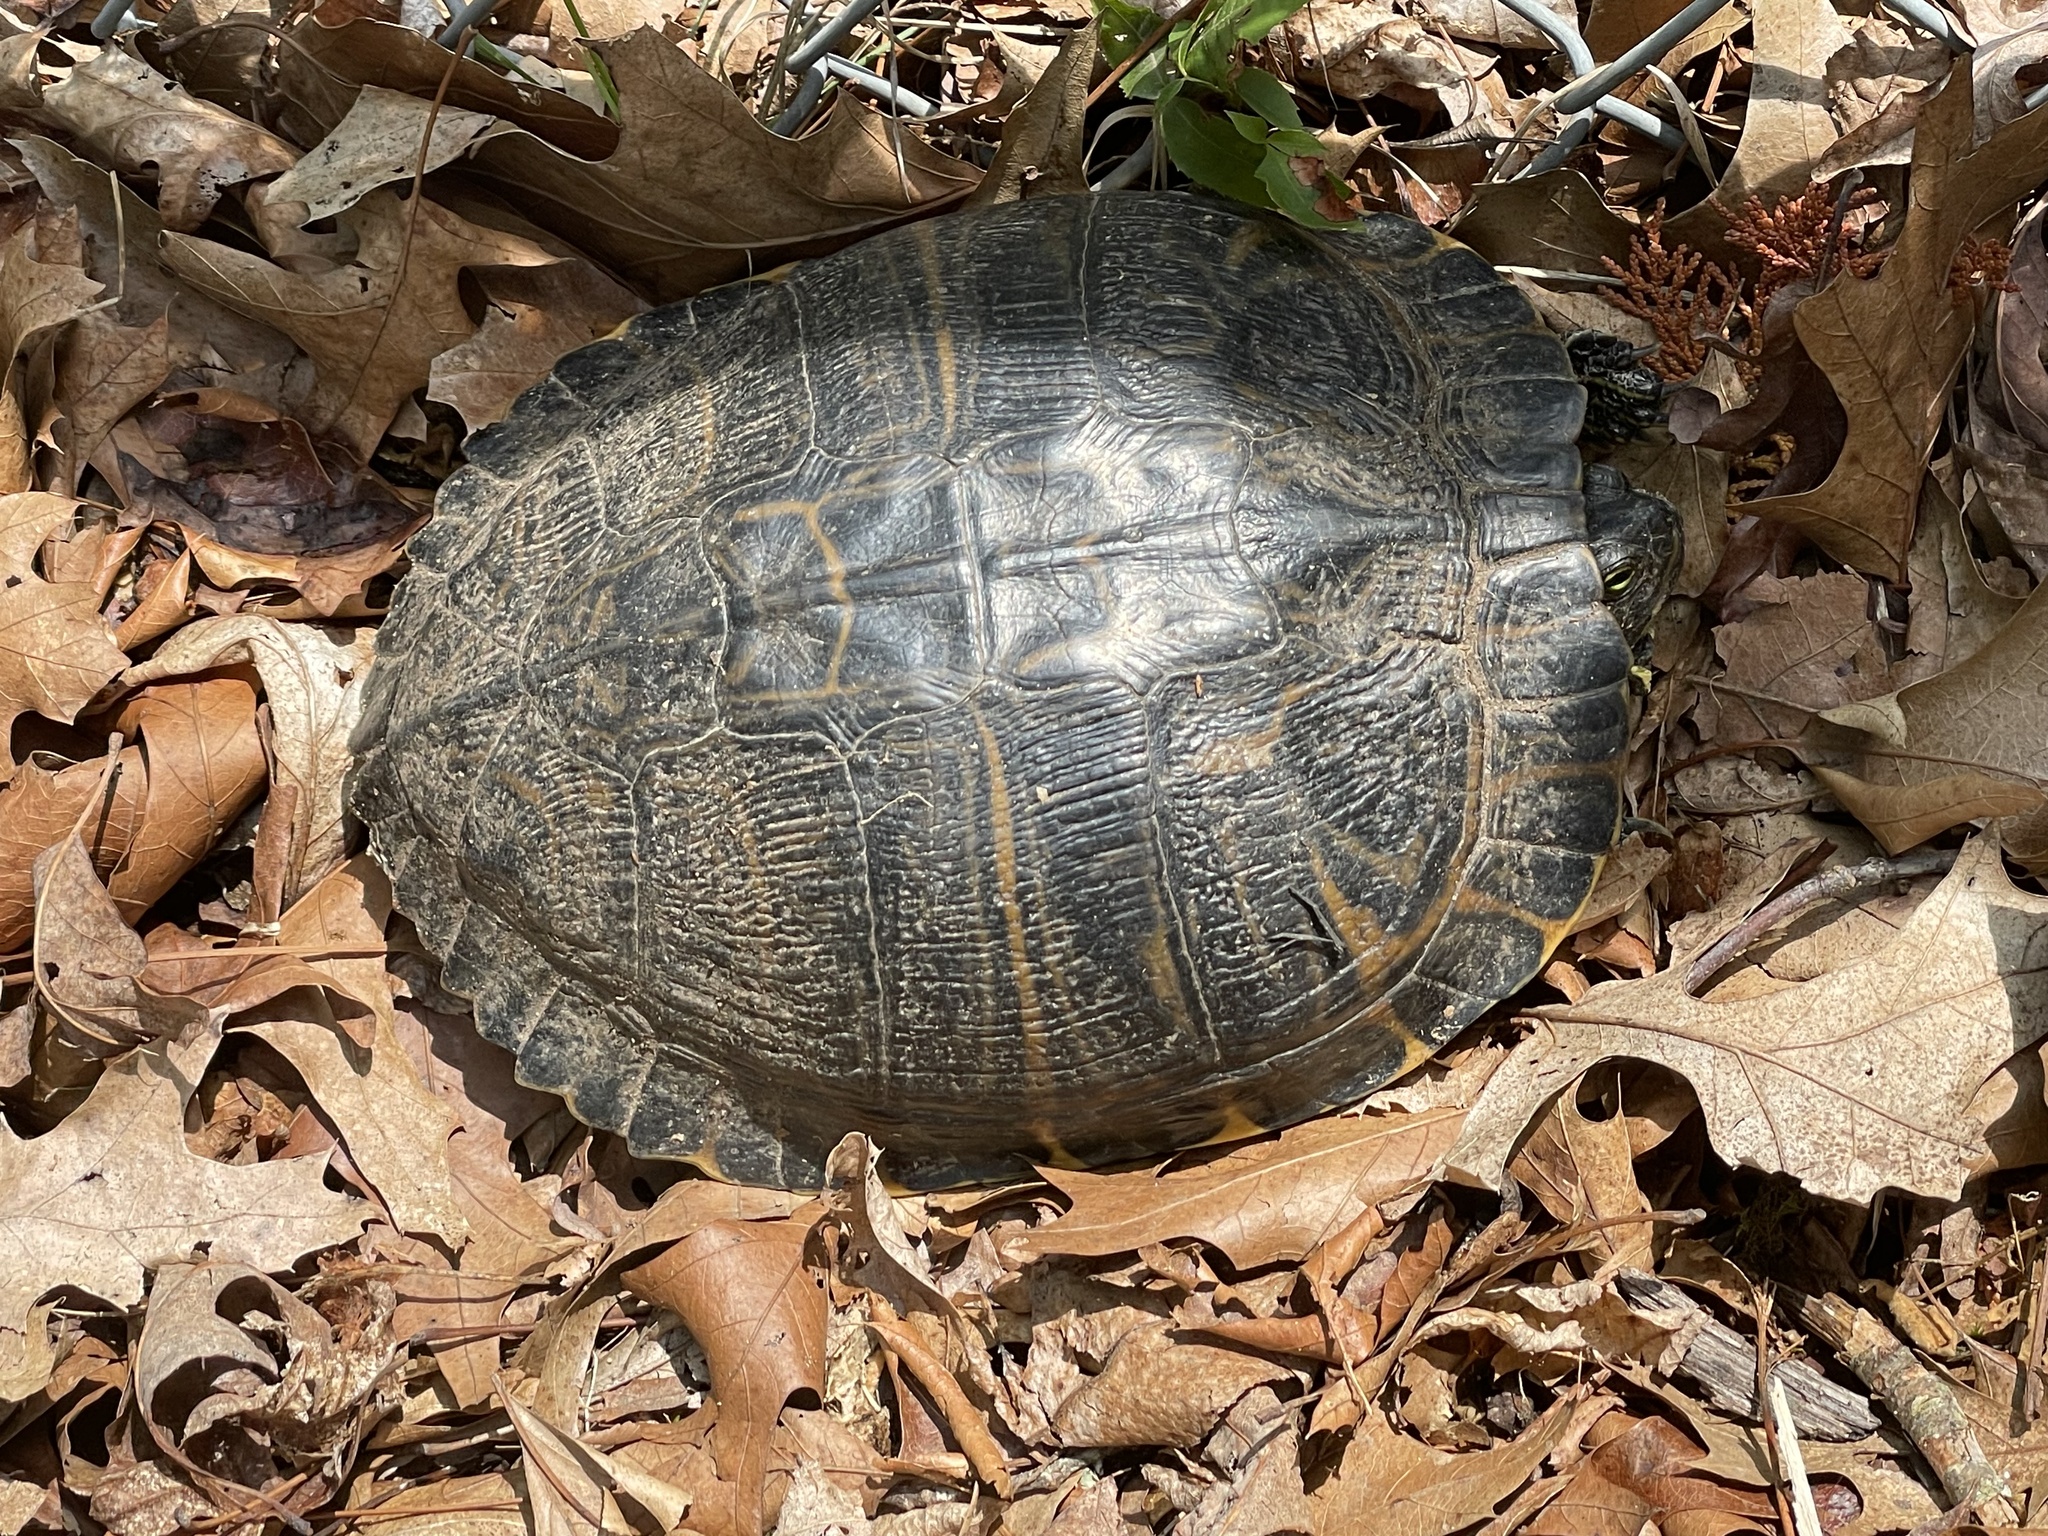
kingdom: Animalia
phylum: Chordata
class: Testudines
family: Emydidae
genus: Trachemys
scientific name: Trachemys scripta
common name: Slider
